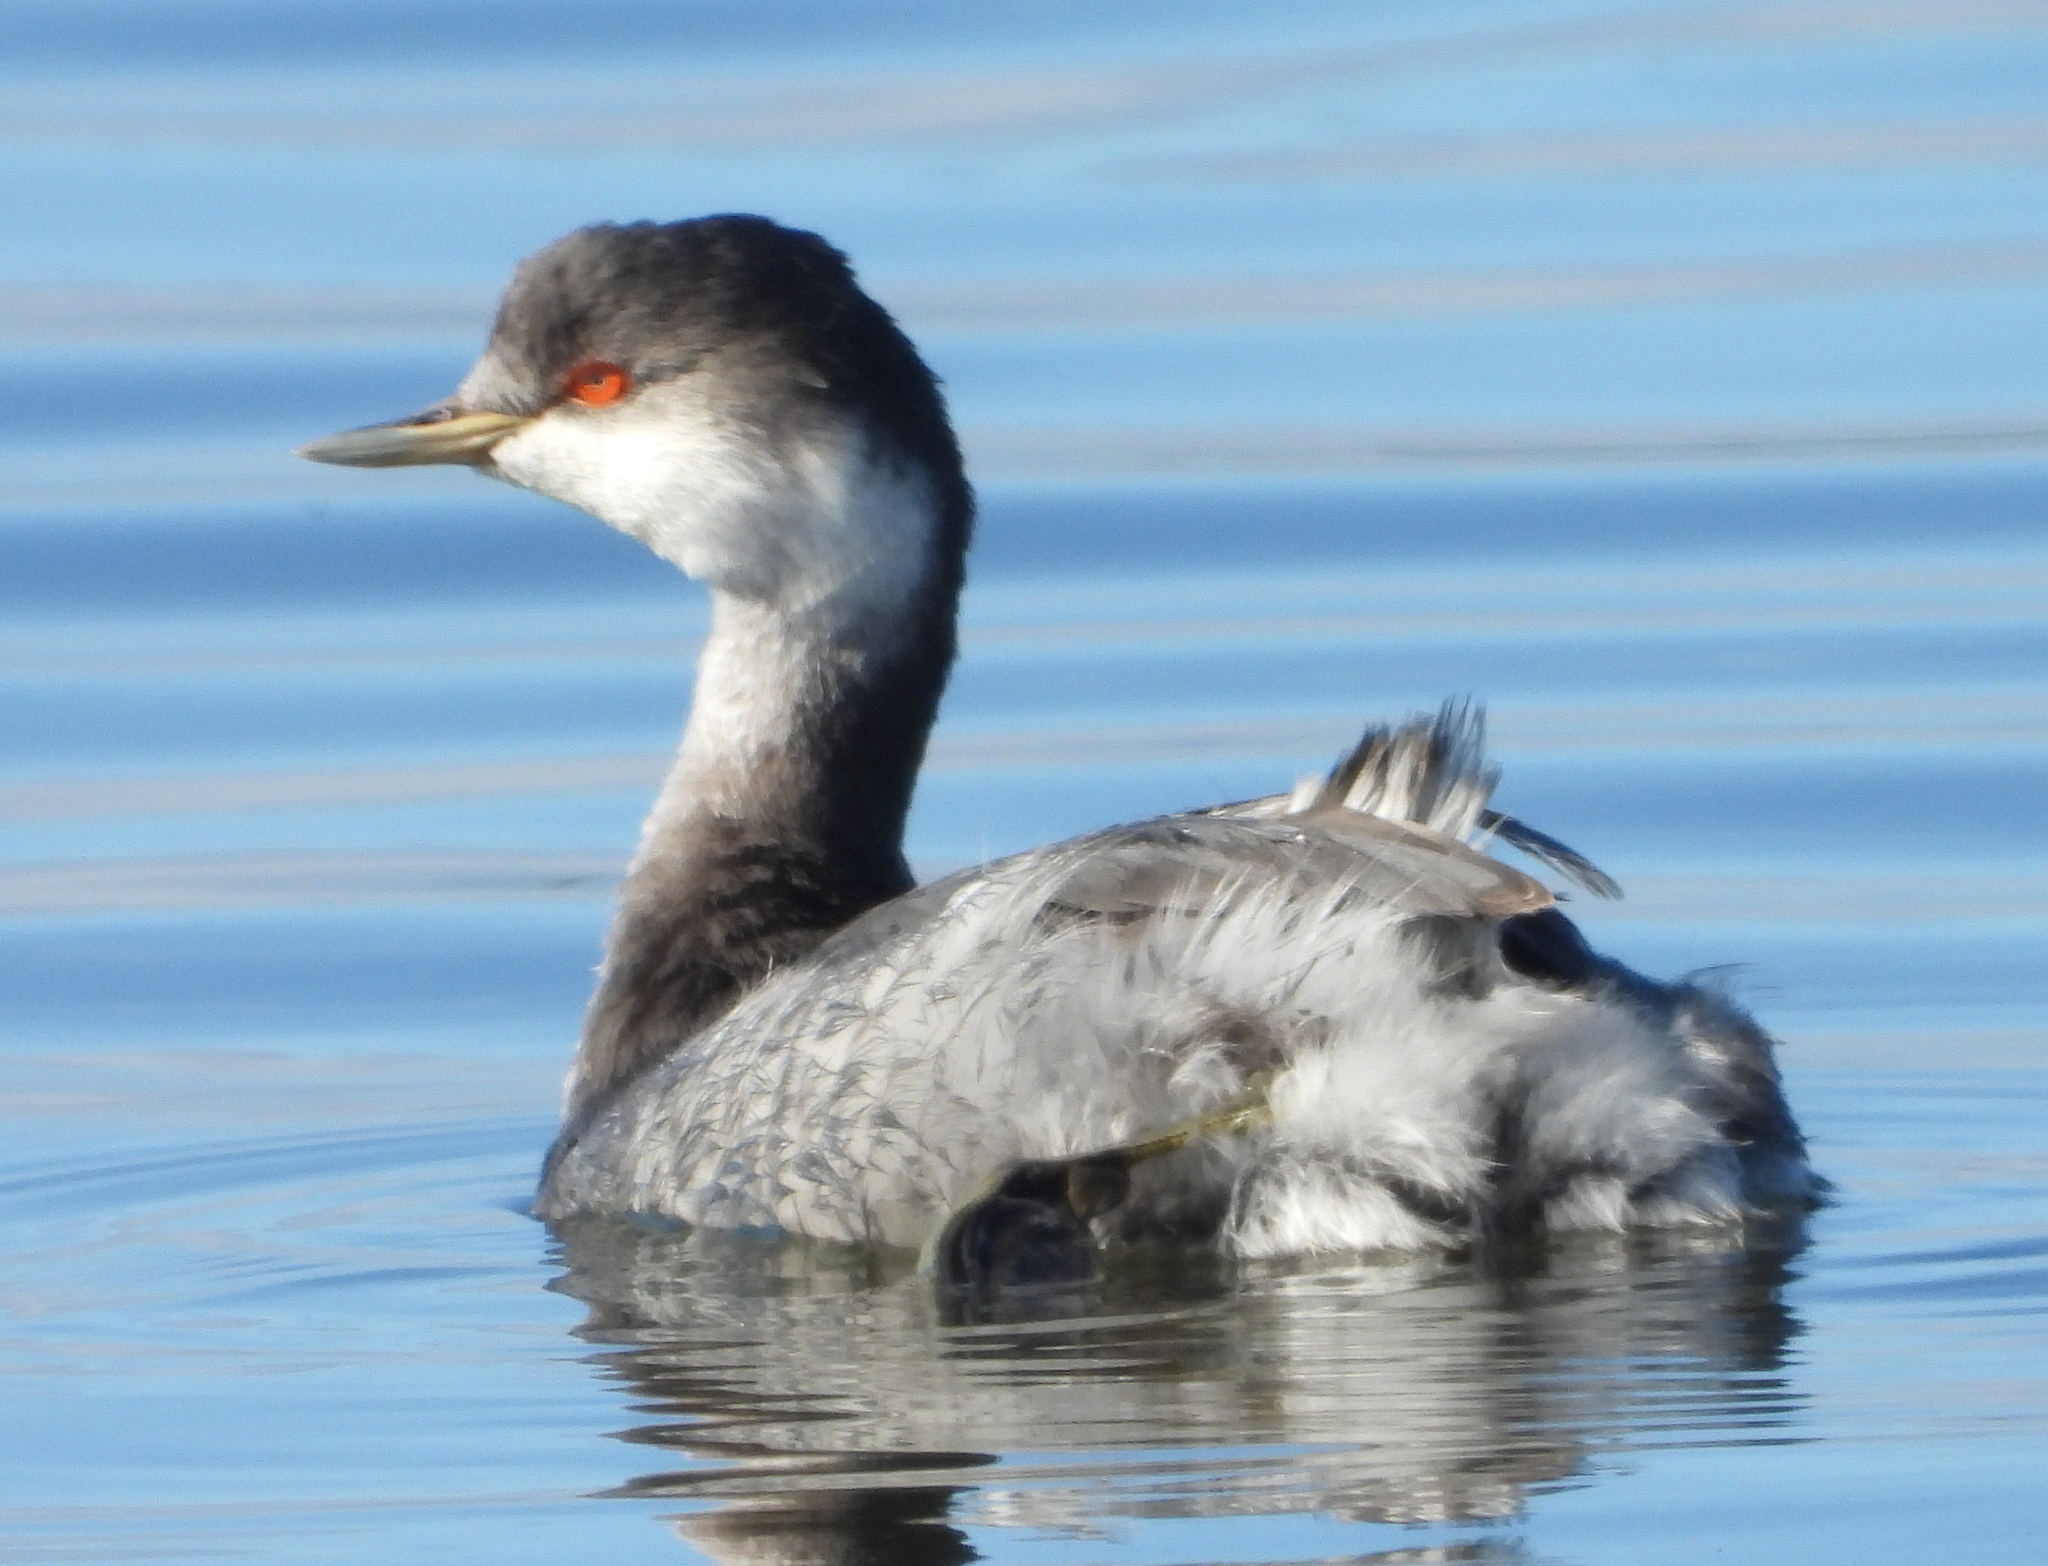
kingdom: Animalia
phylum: Chordata
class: Aves
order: Podicipediformes
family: Podicipedidae
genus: Podiceps
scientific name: Podiceps nigricollis
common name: Black-necked grebe
